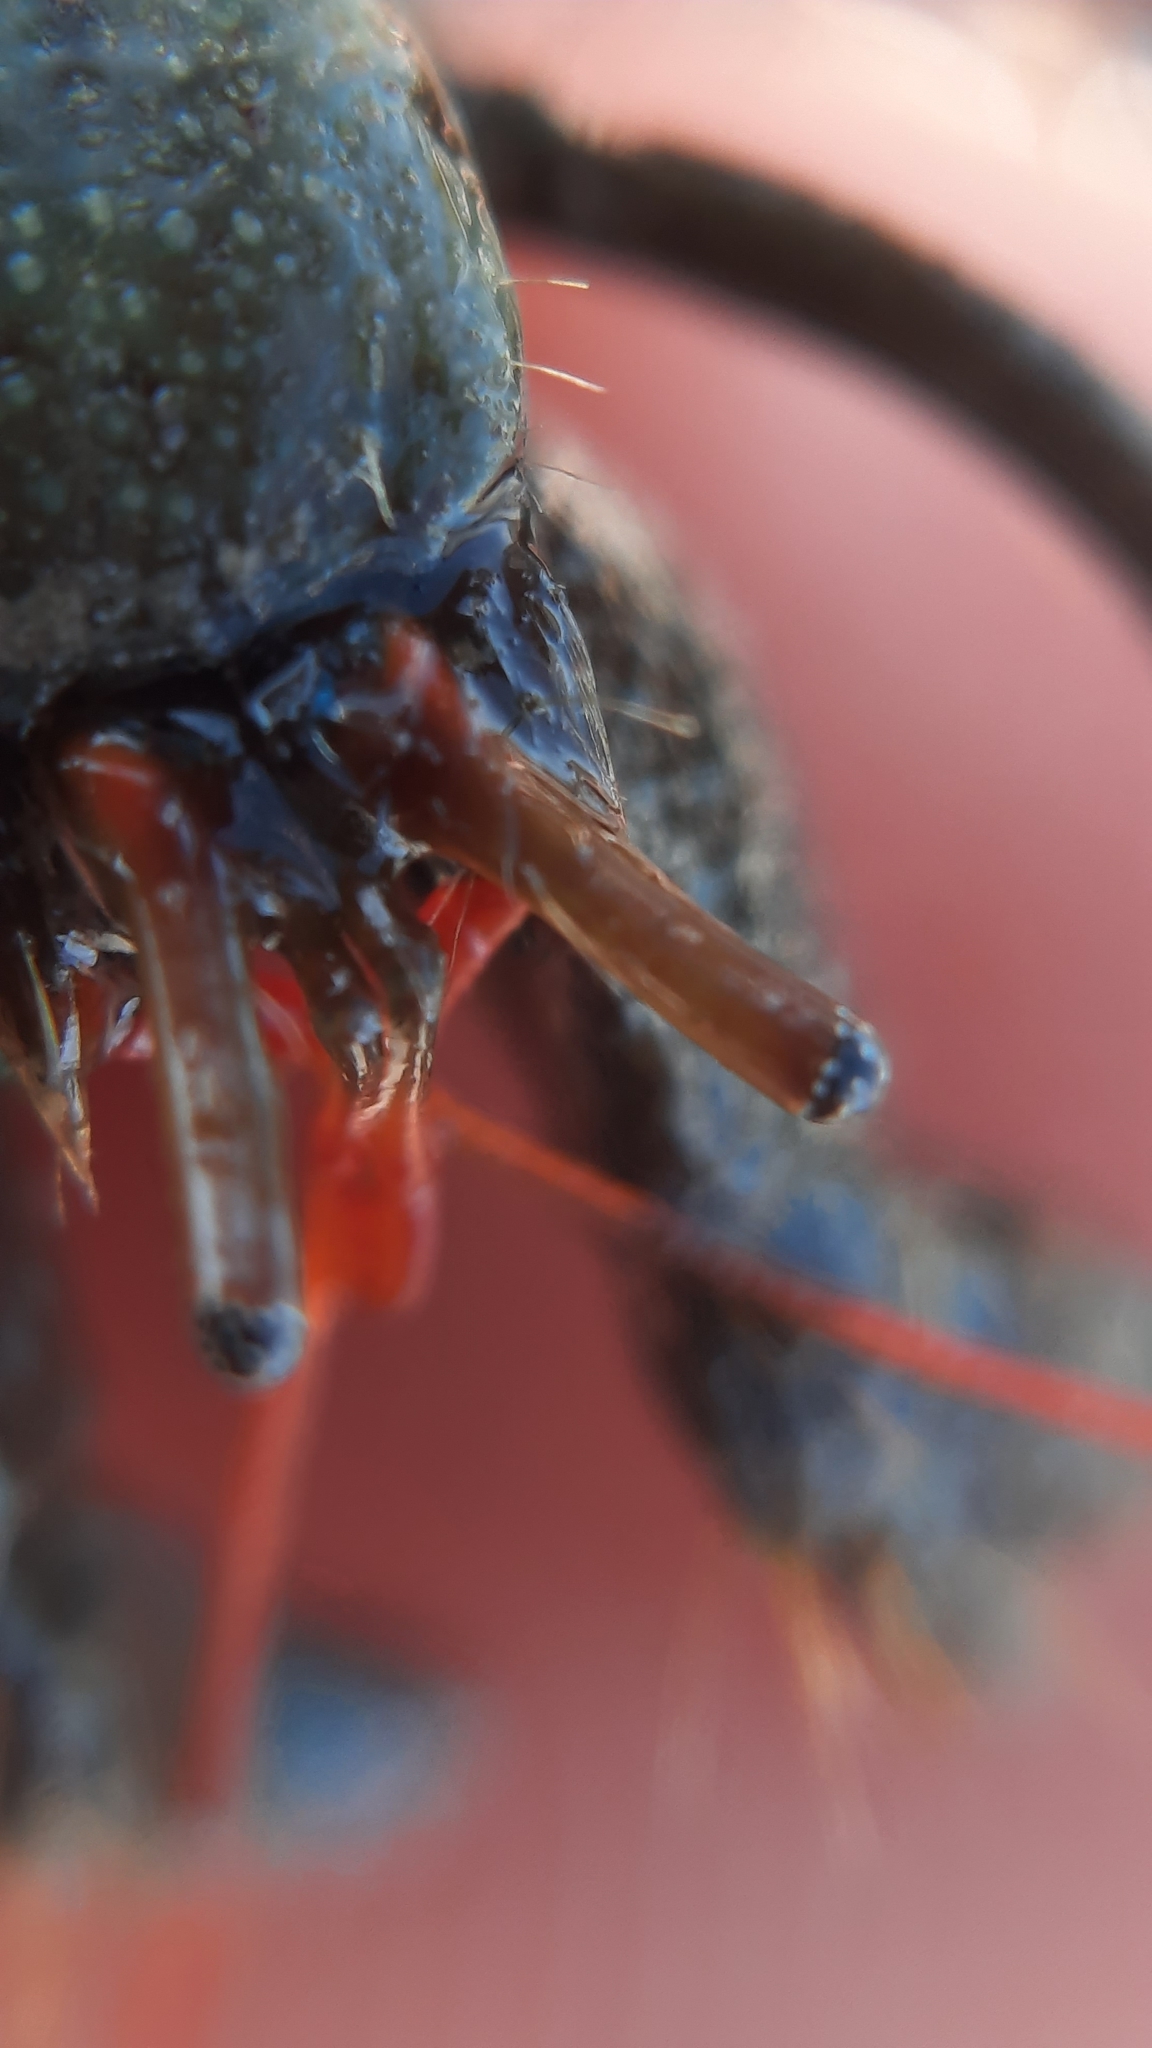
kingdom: Animalia
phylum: Arthropoda
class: Malacostraca
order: Decapoda
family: Diogenidae
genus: Clibanarius
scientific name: Clibanarius erythropus
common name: Hermit crab
